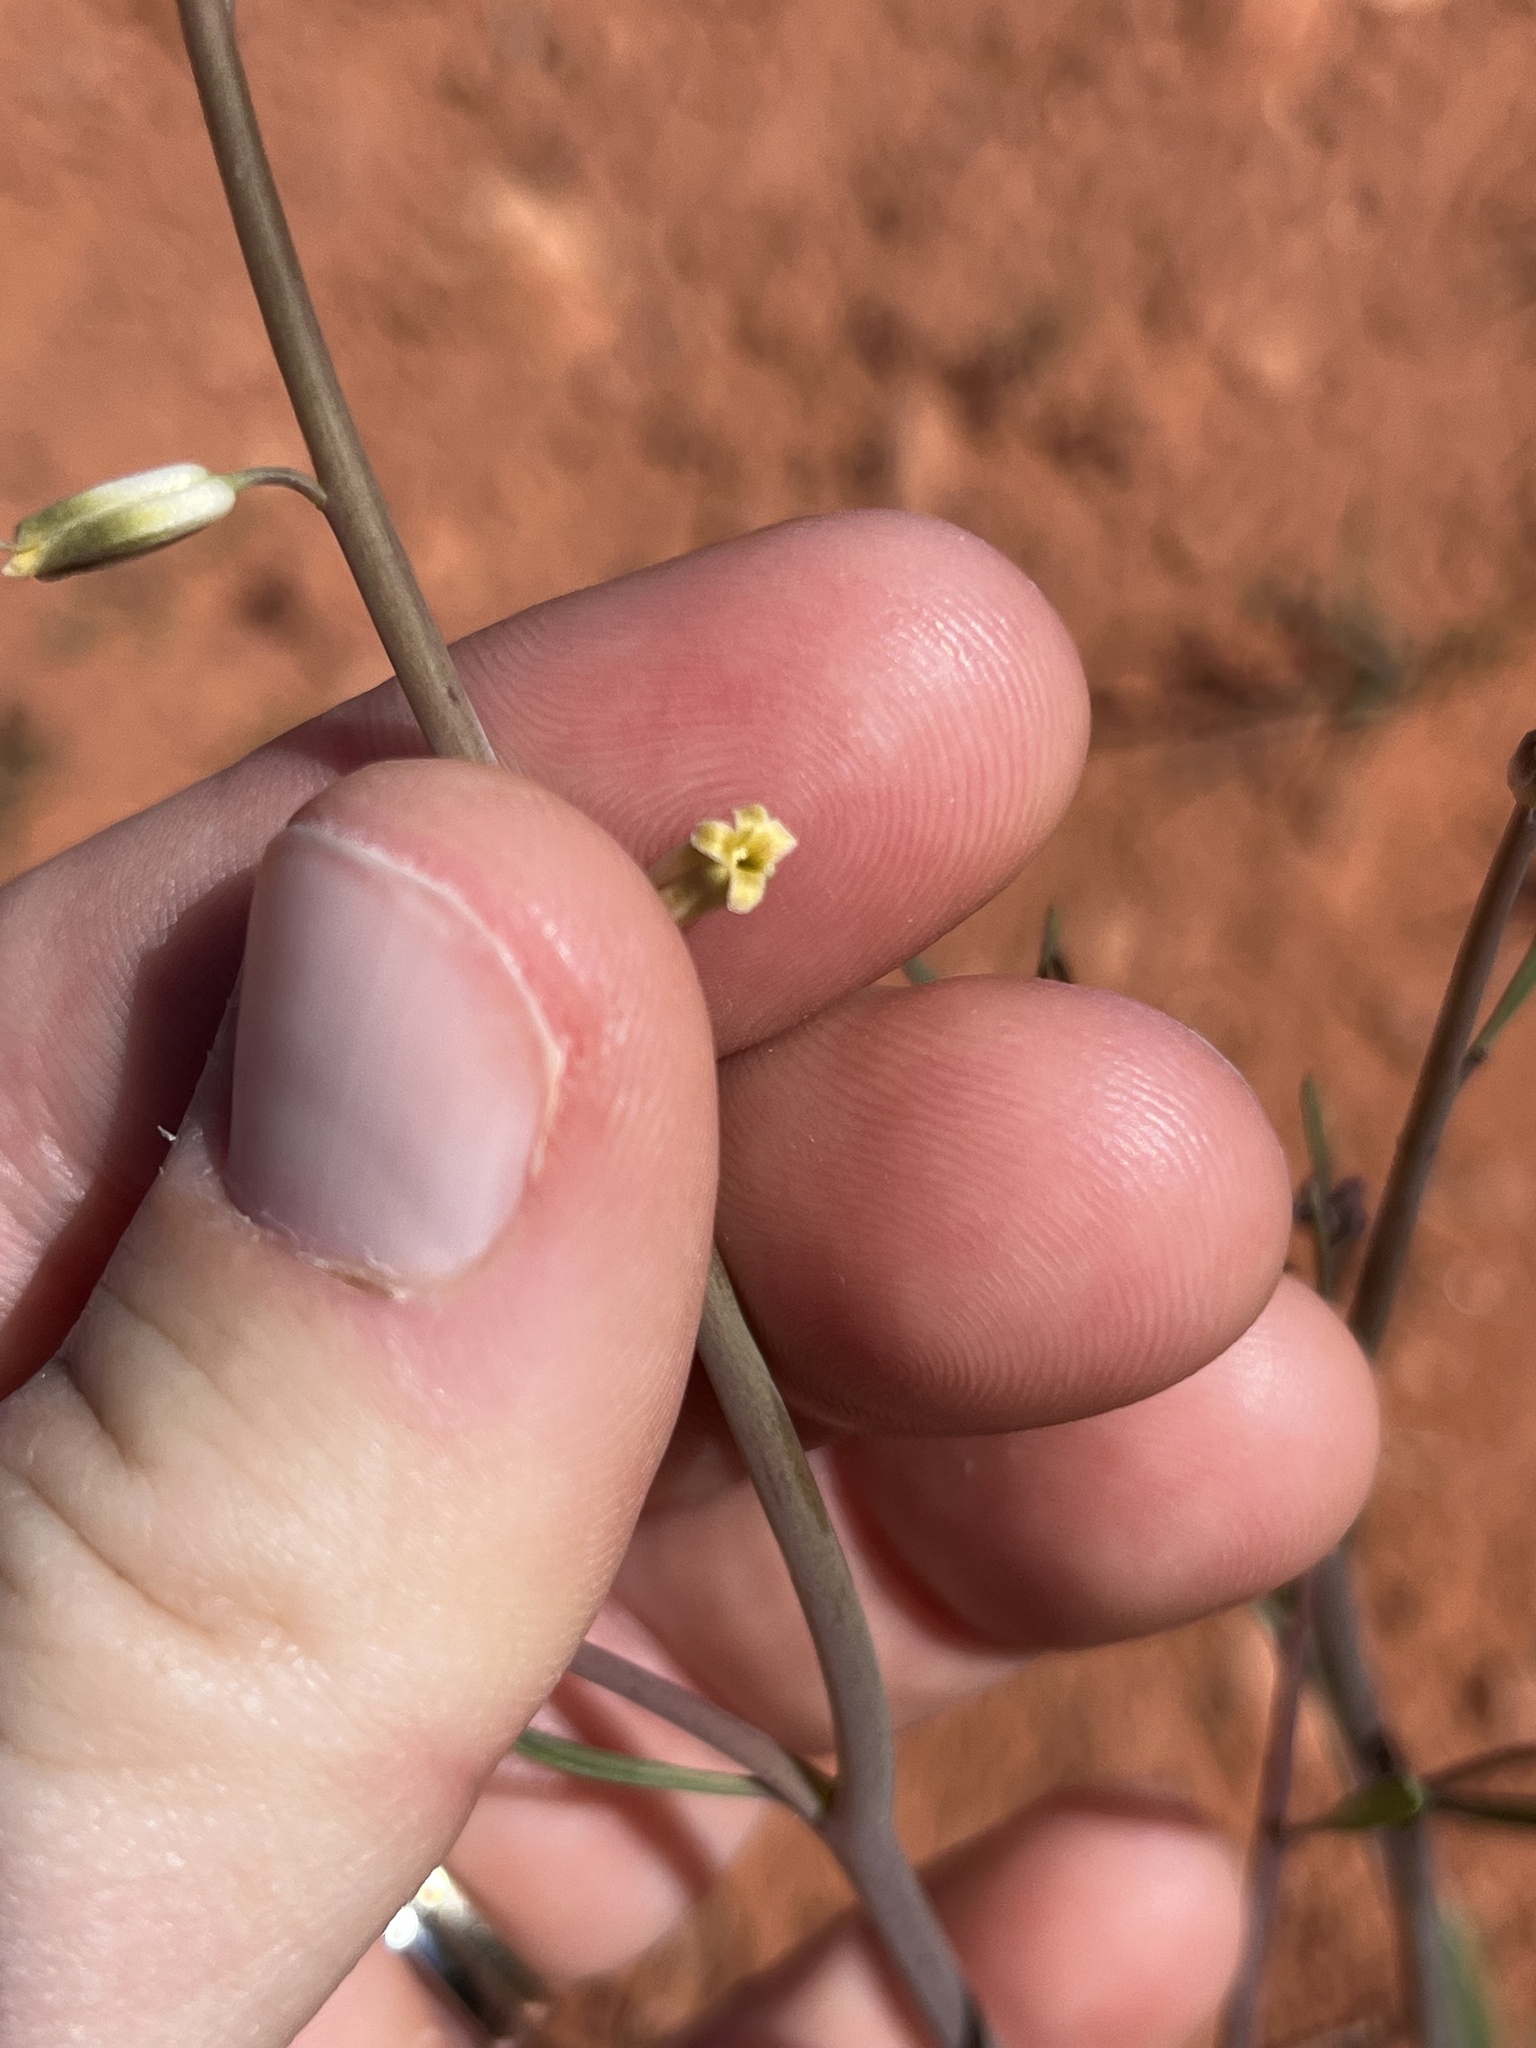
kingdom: Plantae
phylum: Tracheophyta
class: Magnoliopsida
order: Brassicales
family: Brassicaceae
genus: Streptanthus
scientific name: Streptanthus longirostris
